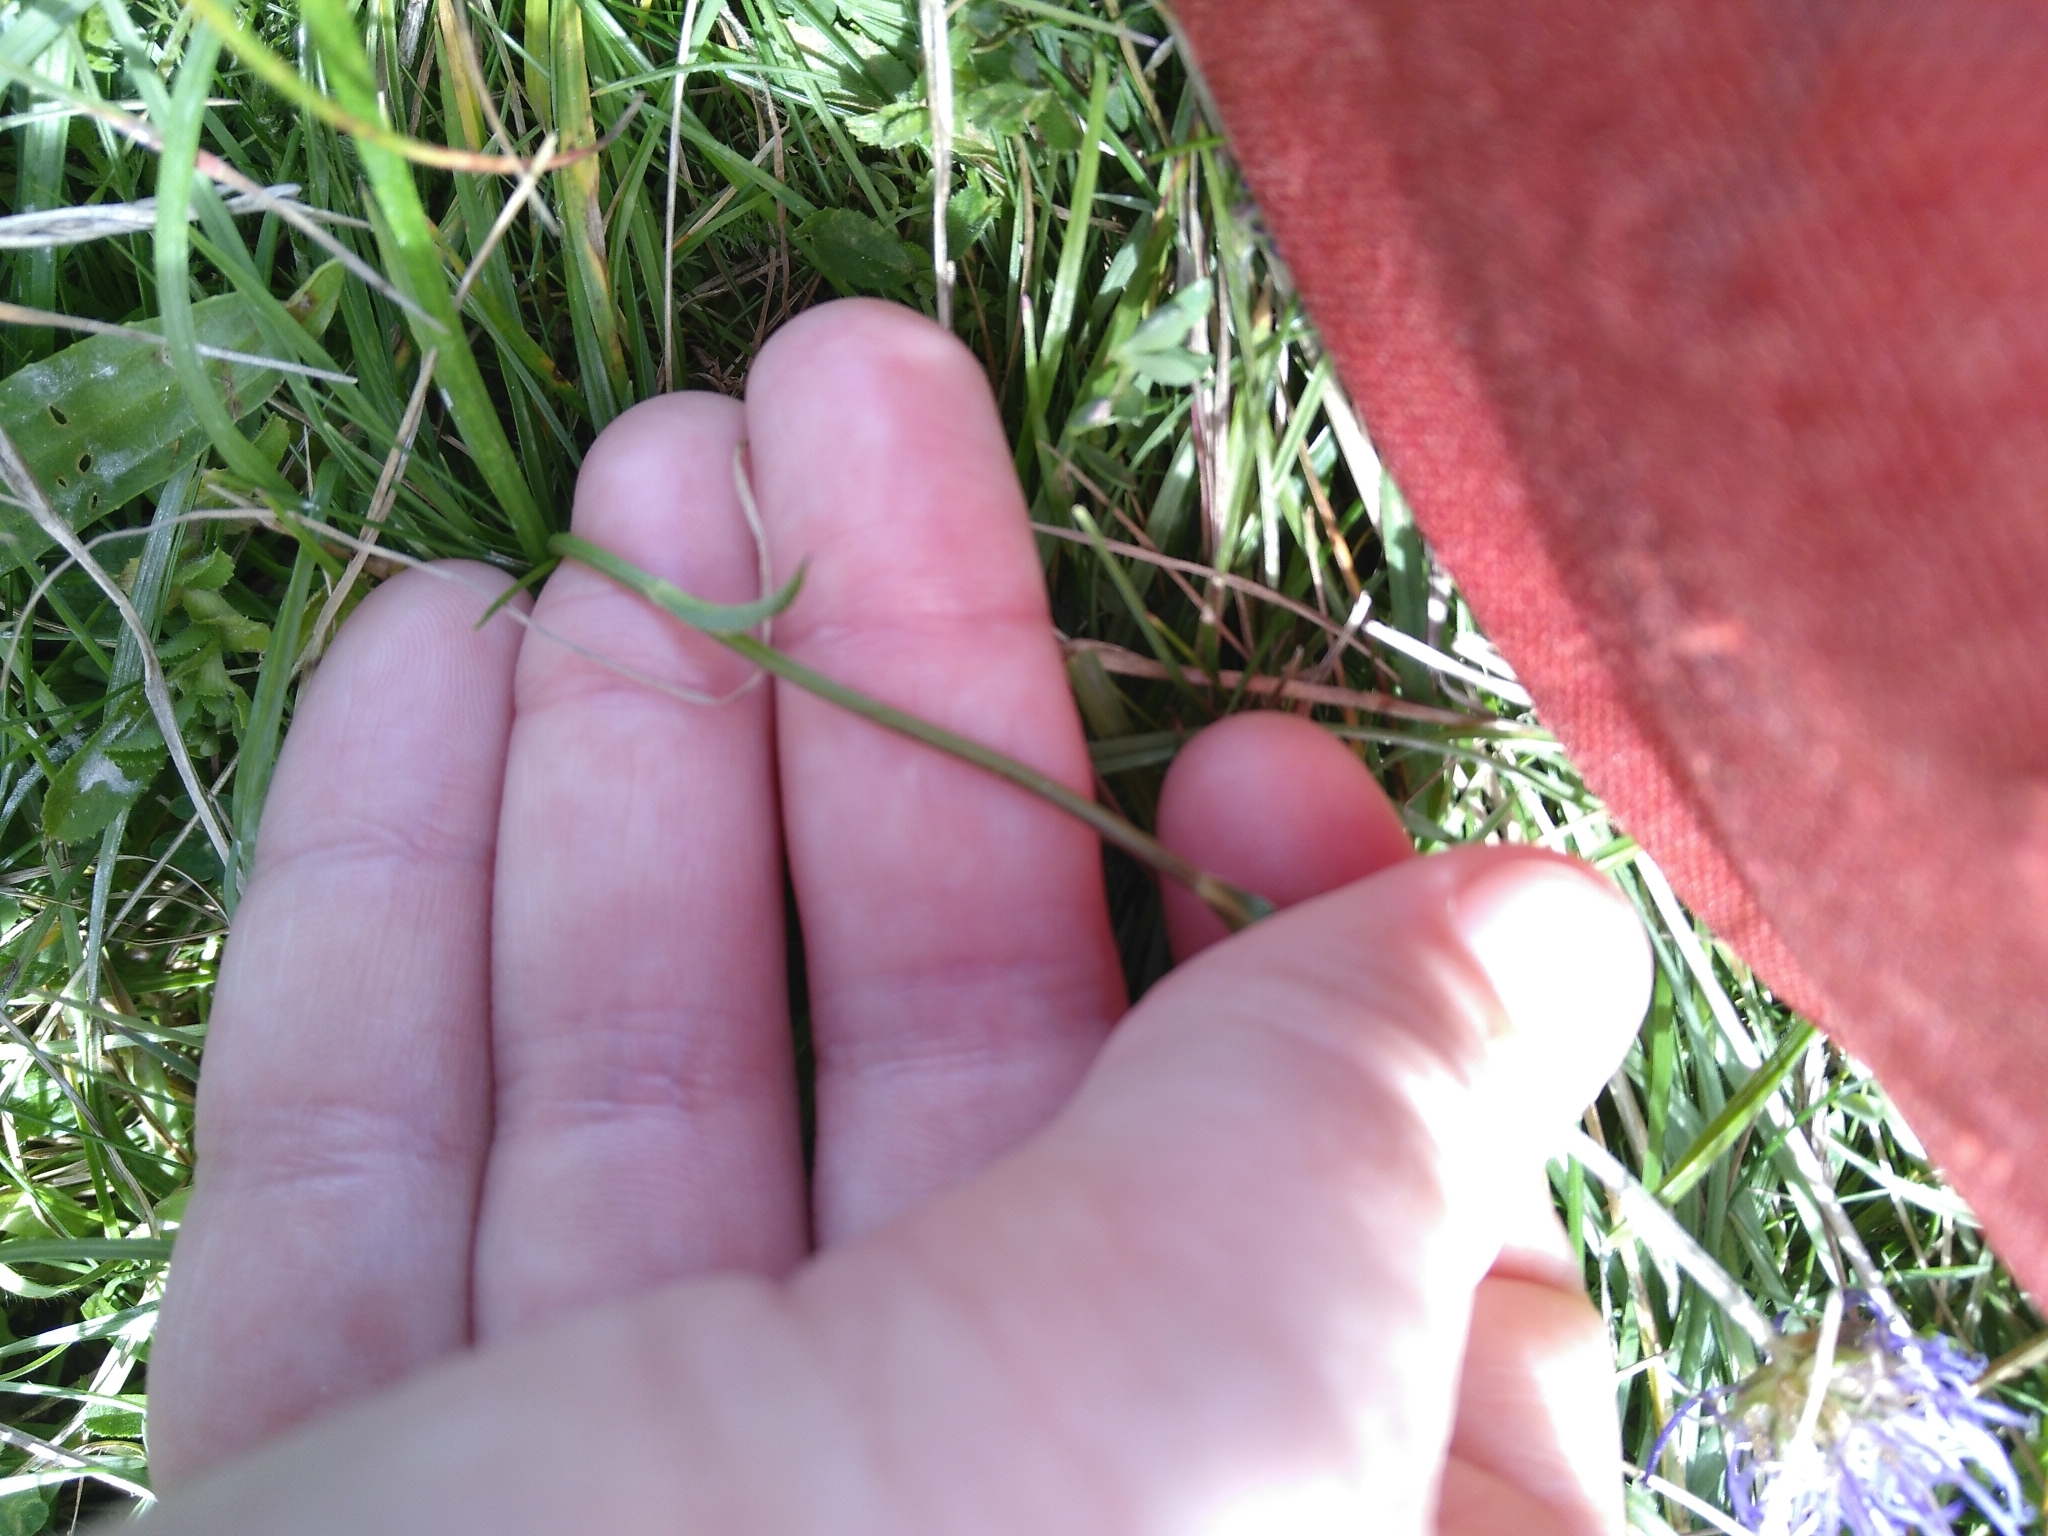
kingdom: Plantae
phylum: Tracheophyta
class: Magnoliopsida
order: Asterales
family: Campanulaceae
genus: Phyteuma
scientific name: Phyteuma orbiculare
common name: Round-headed rampion
